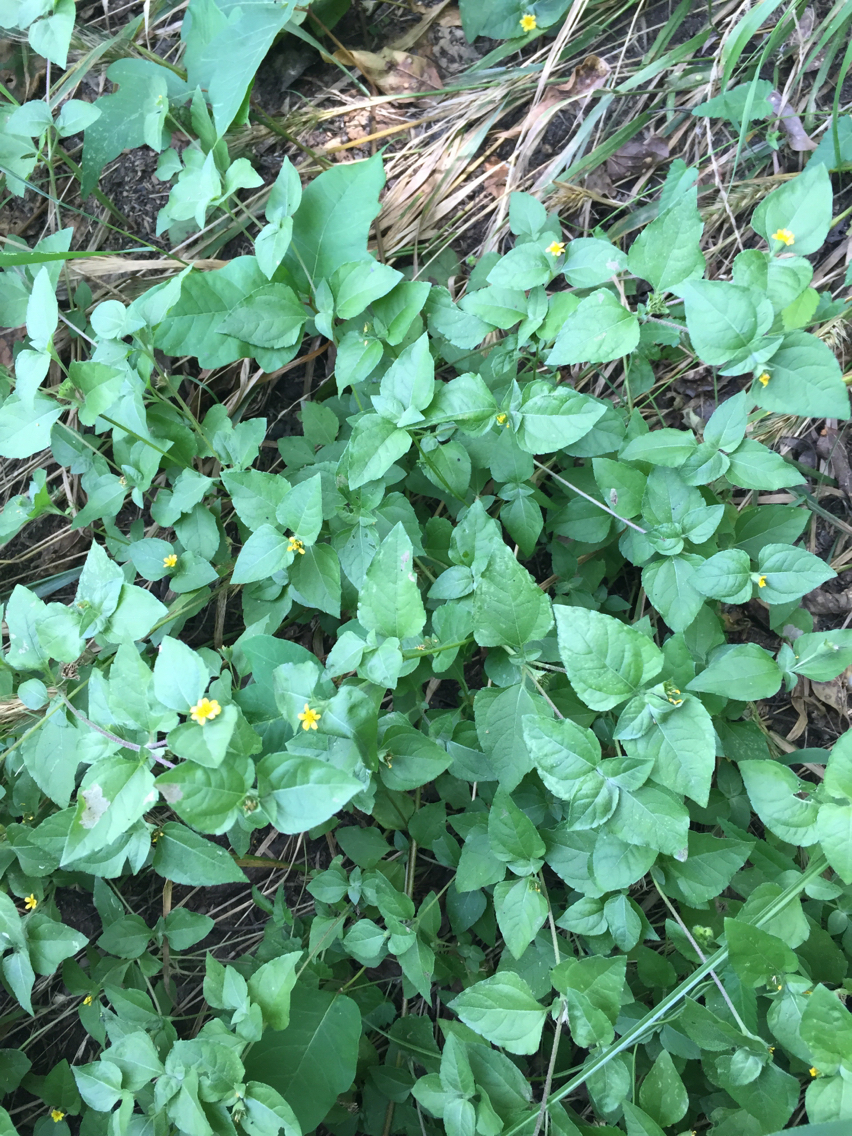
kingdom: Plantae
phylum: Tracheophyta
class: Magnoliopsida
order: Asterales
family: Asteraceae
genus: Calyptocarpus
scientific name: Calyptocarpus vialis
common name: Straggler daisy
